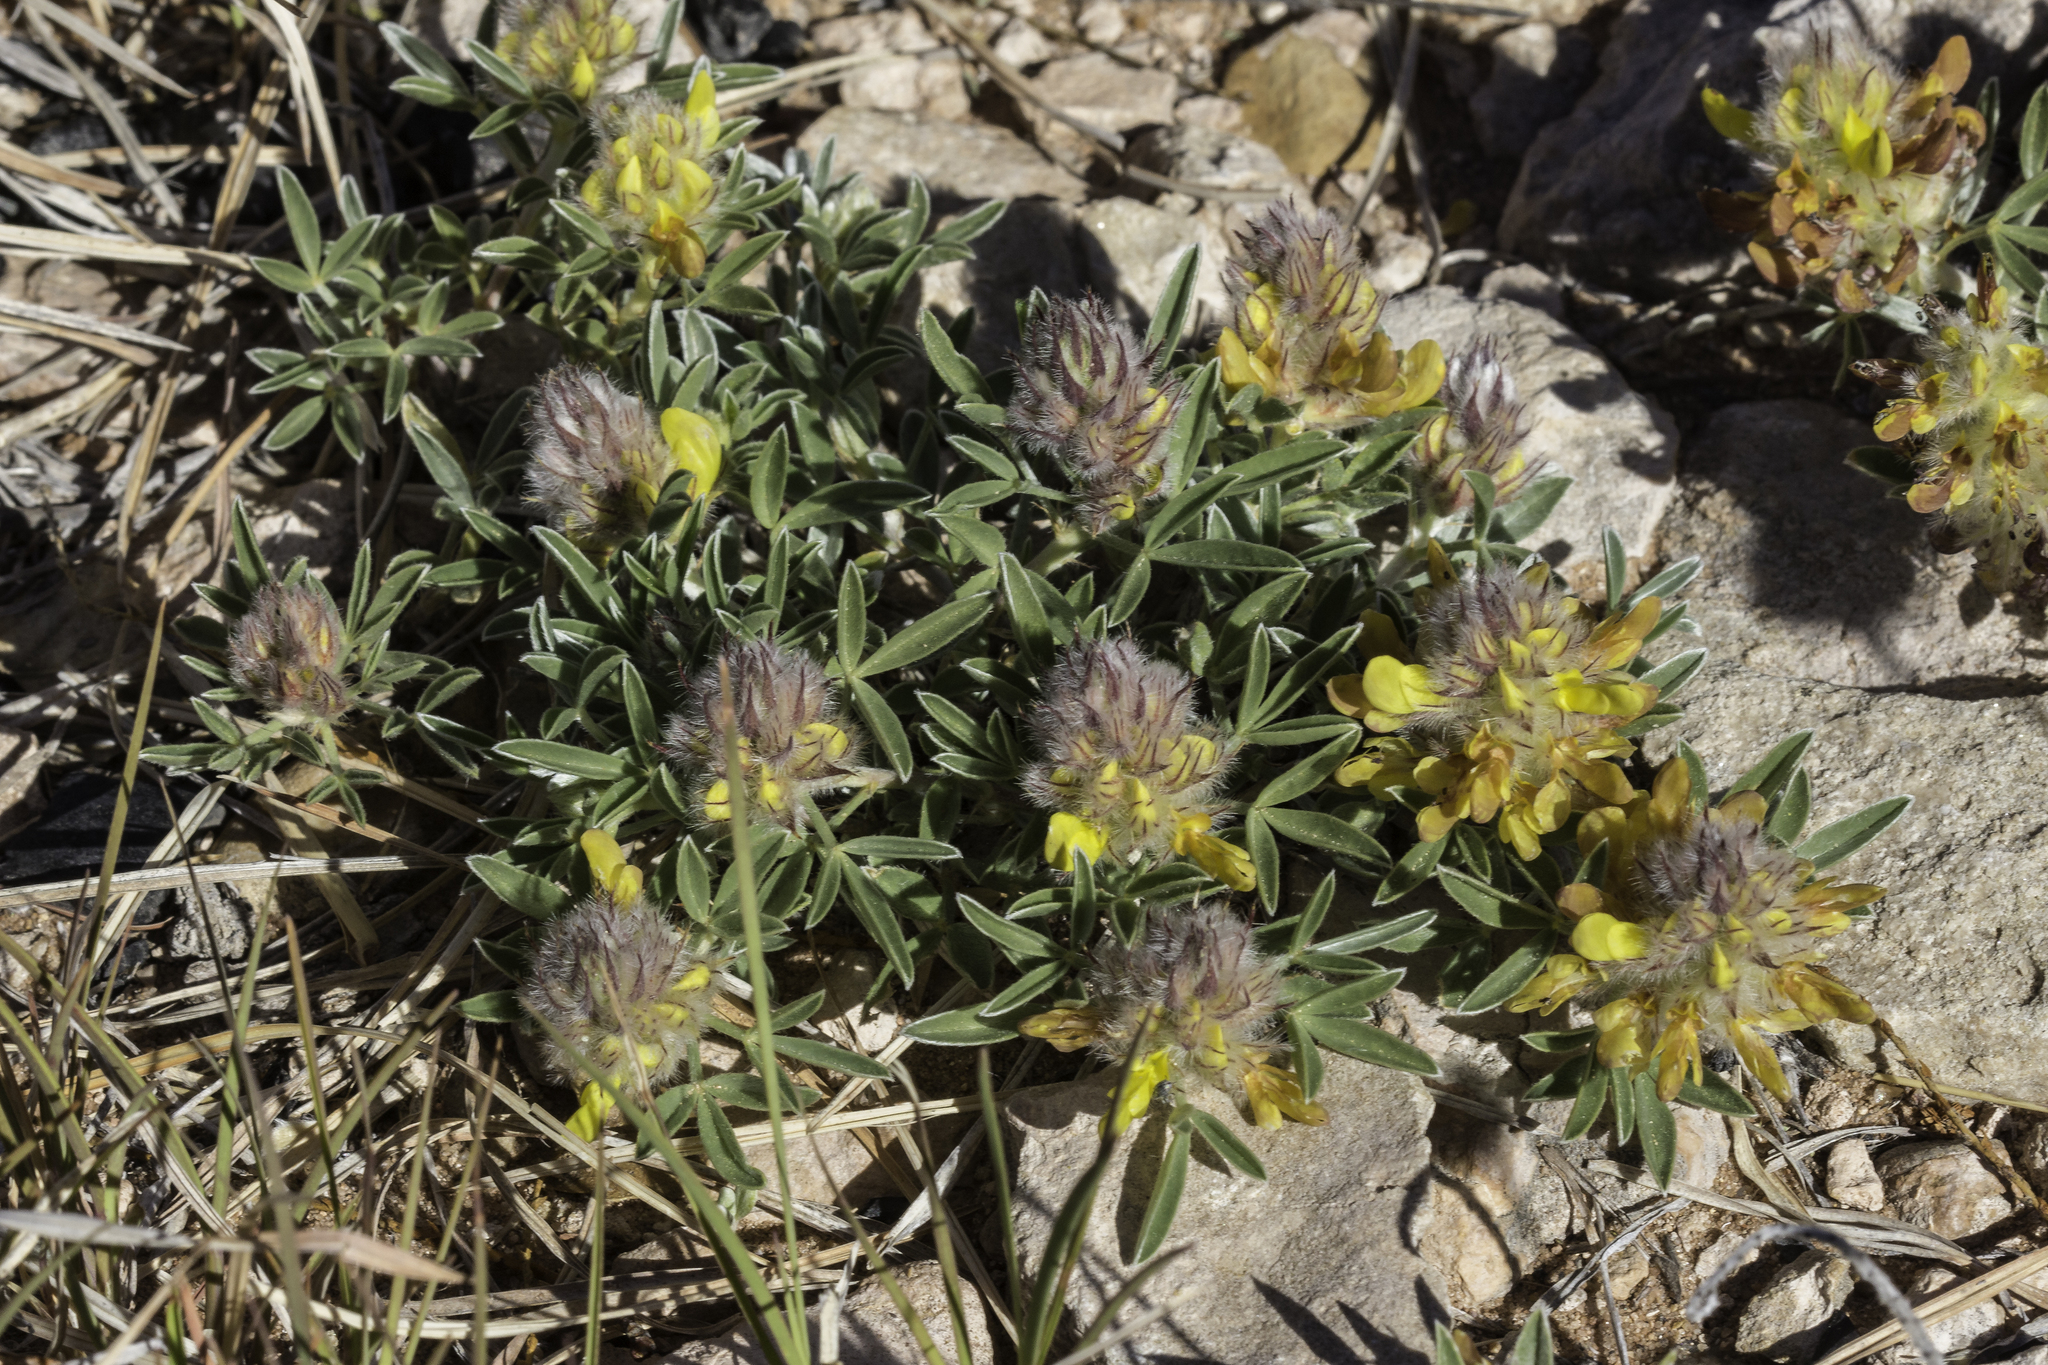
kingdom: Plantae
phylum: Tracheophyta
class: Magnoliopsida
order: Fabales
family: Fabaceae
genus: Dalea
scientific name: Dalea jamesii
